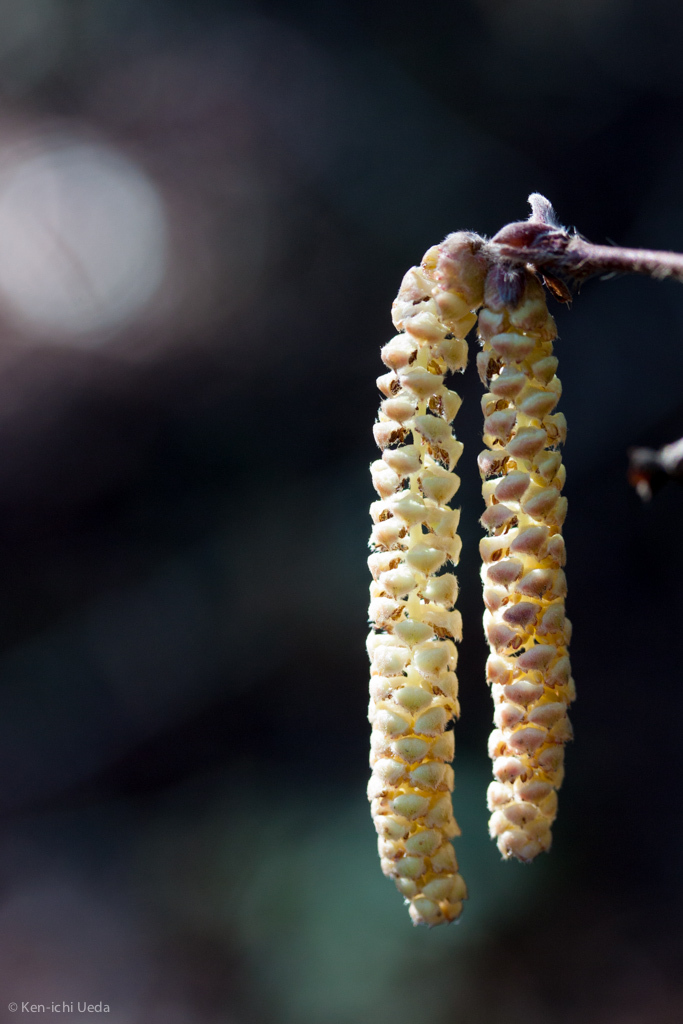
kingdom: Plantae
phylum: Tracheophyta
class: Magnoliopsida
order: Fagales
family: Betulaceae
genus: Corylus
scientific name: Corylus cornuta
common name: Beaked hazel
